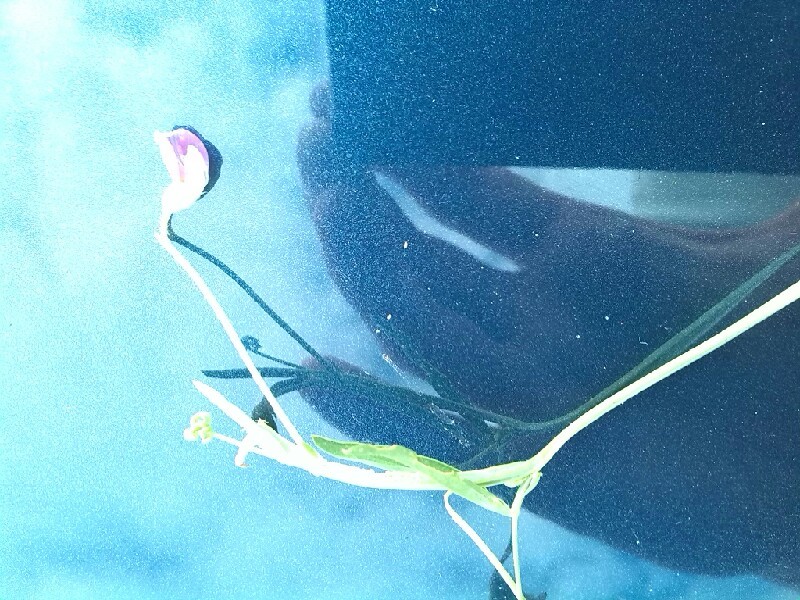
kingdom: Plantae
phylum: Tracheophyta
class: Magnoliopsida
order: Fabales
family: Fabaceae
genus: Lathyrus
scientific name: Lathyrus nissolia
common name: Grass vetchling
